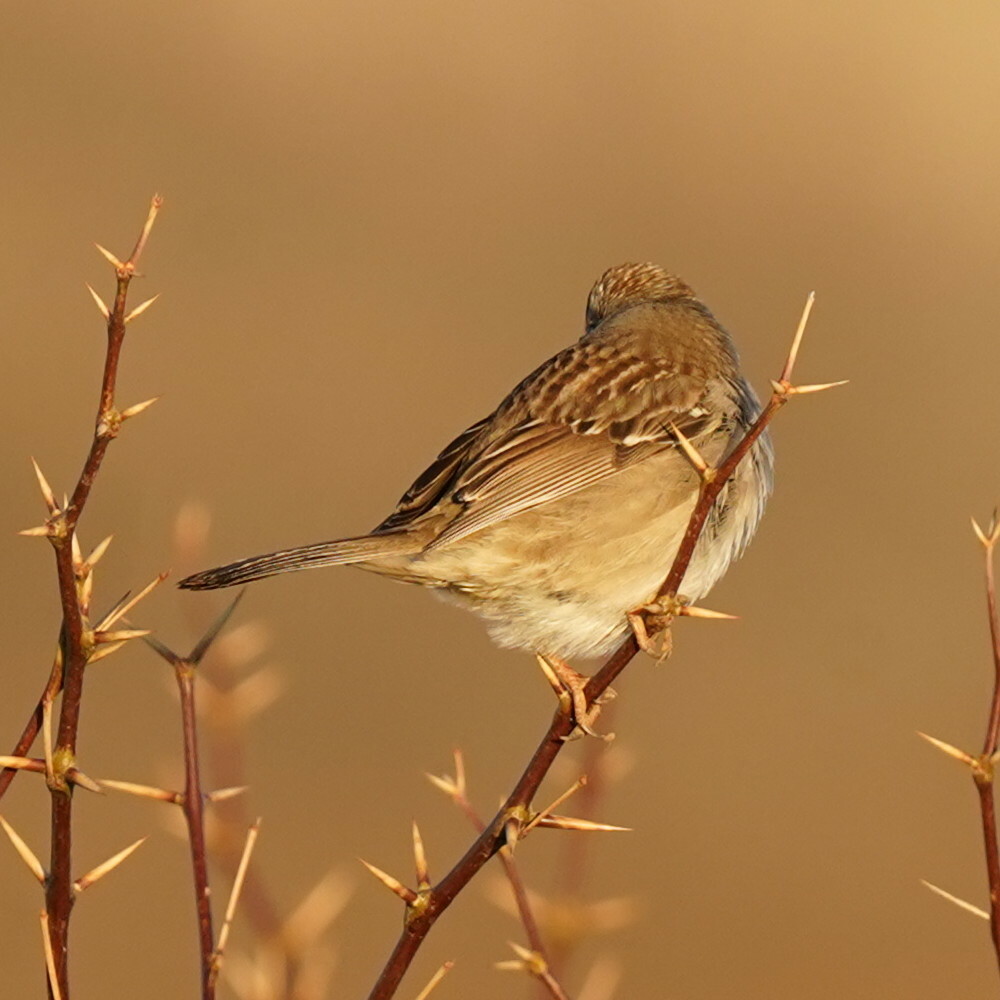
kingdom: Animalia
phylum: Chordata
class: Aves
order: Passeriformes
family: Passerellidae
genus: Zonotrichia
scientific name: Zonotrichia leucophrys
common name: White-crowned sparrow
